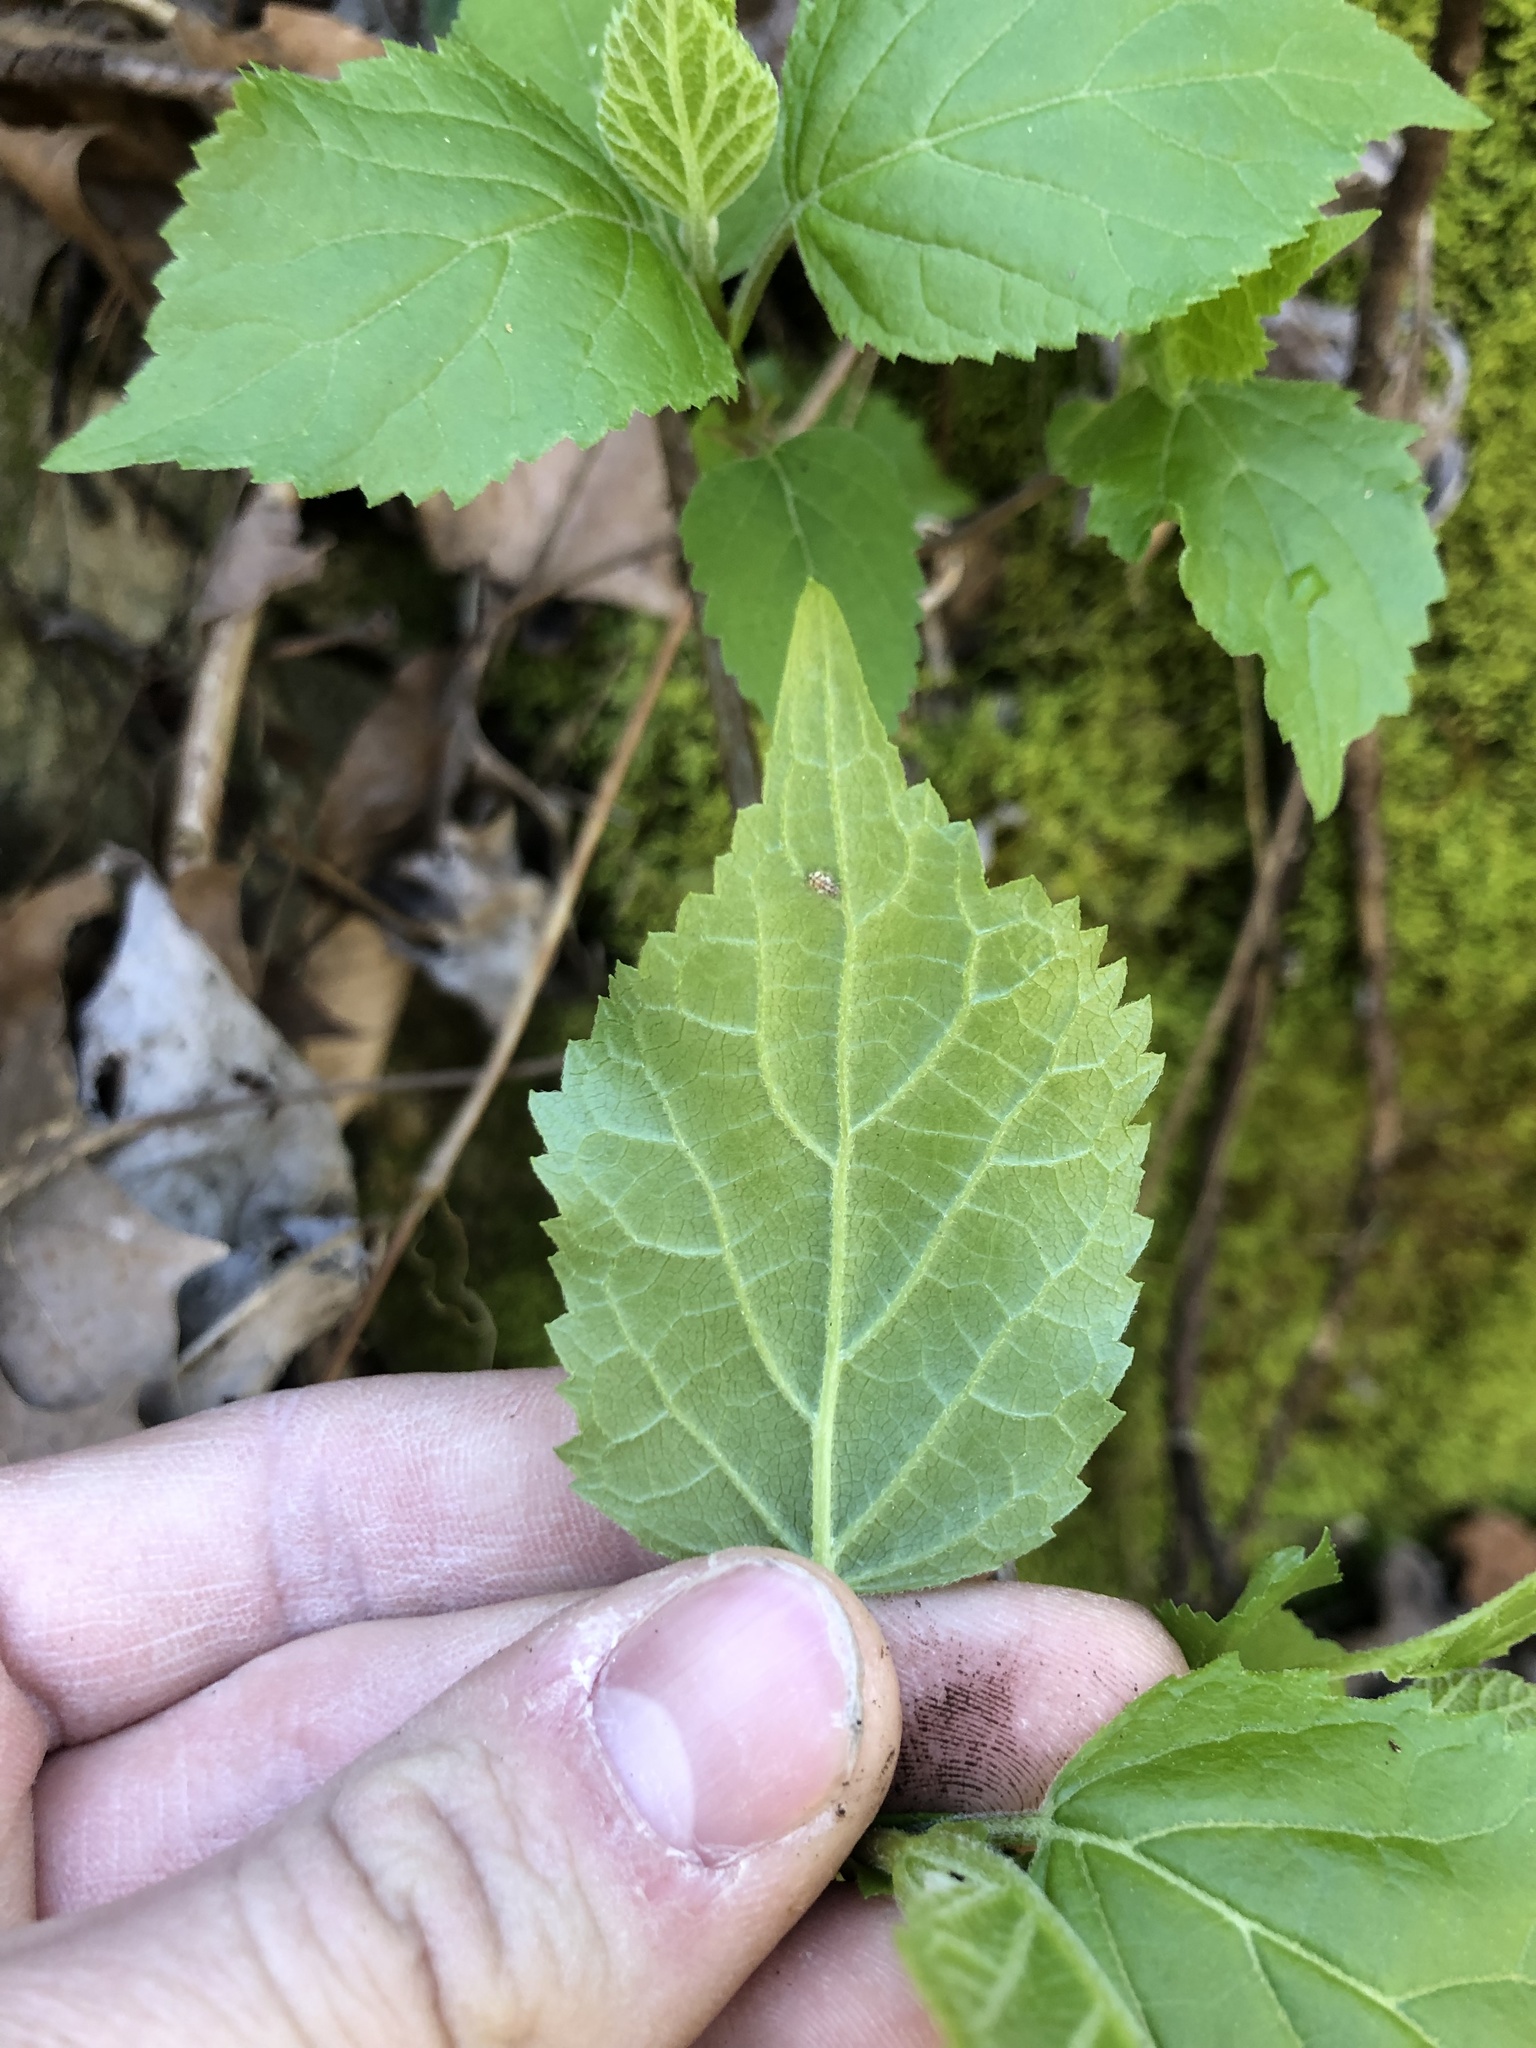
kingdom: Plantae
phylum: Tracheophyta
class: Magnoliopsida
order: Cornales
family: Hydrangeaceae
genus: Hydrangea
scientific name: Hydrangea arborescens
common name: Sevenbark
